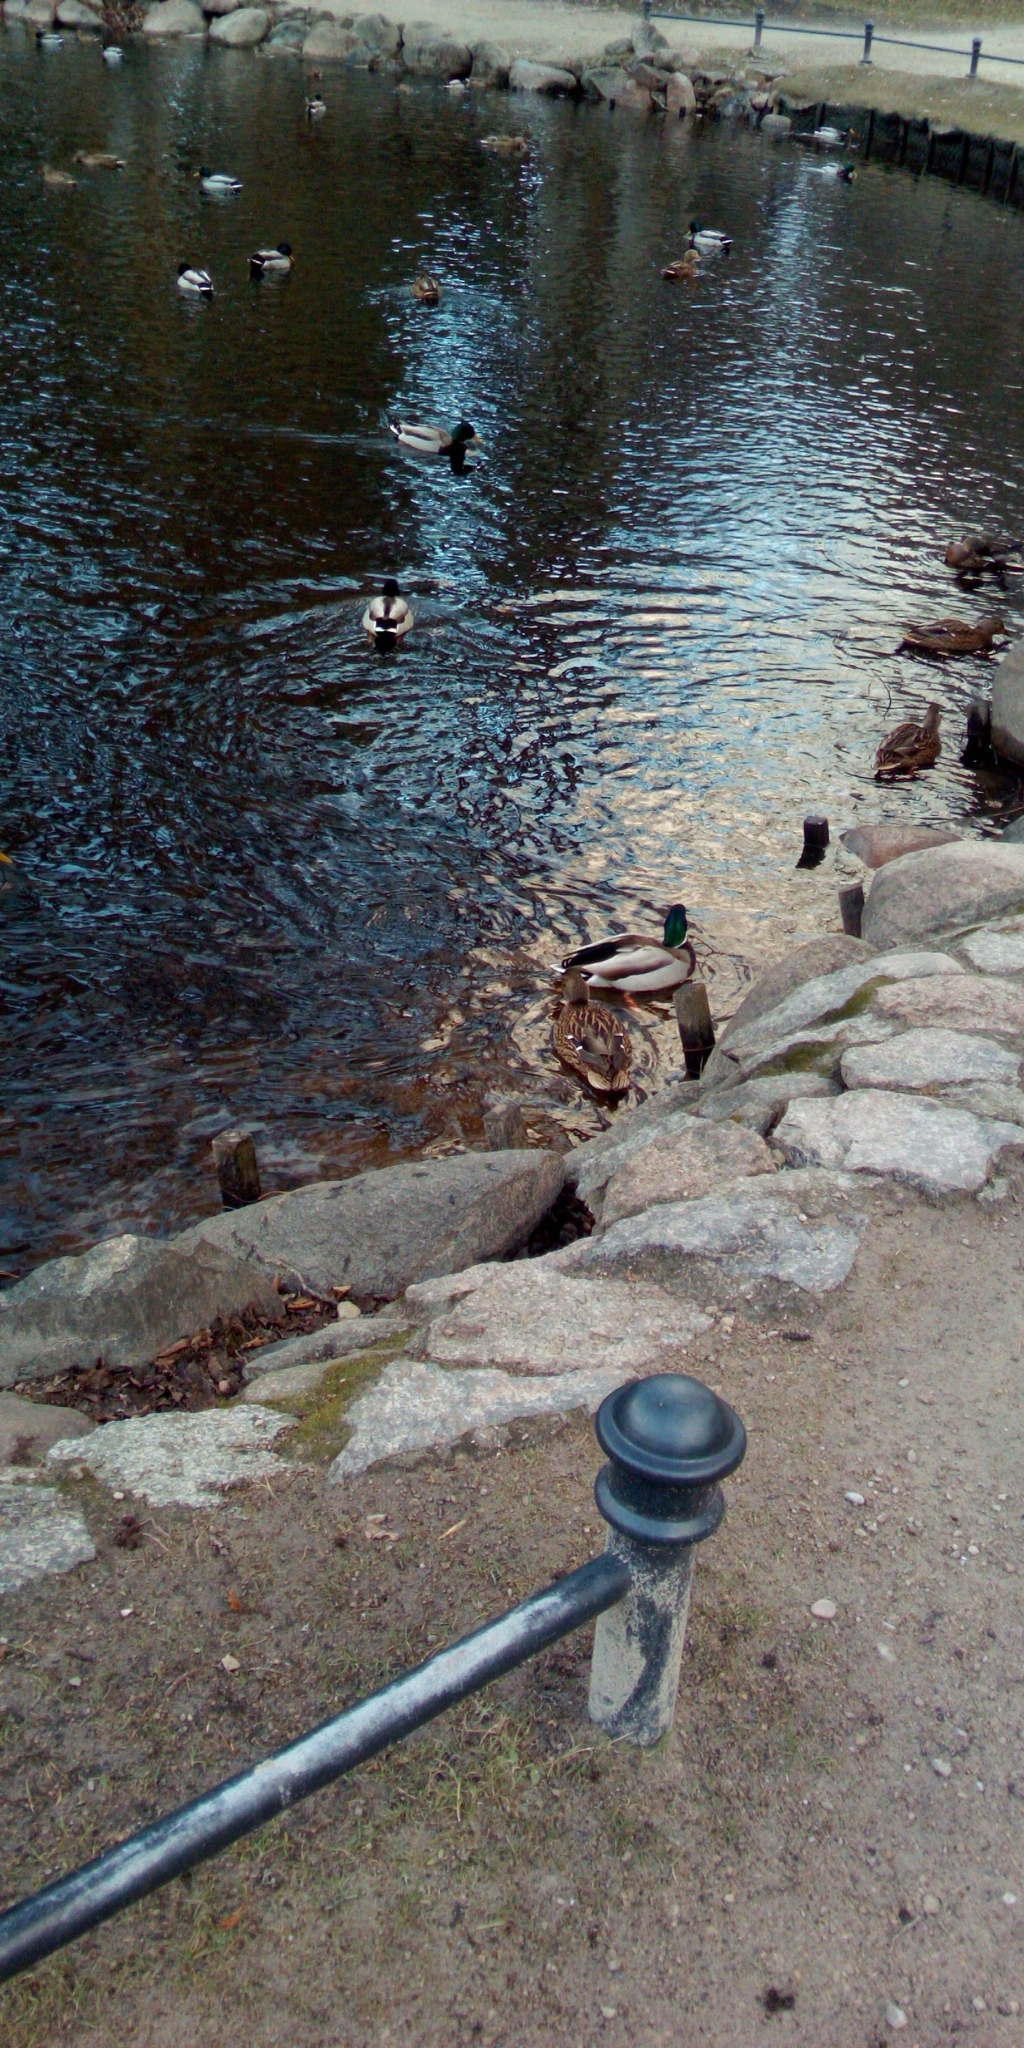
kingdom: Animalia
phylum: Chordata
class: Aves
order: Anseriformes
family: Anatidae
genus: Anas
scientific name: Anas platyrhynchos
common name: Mallard
